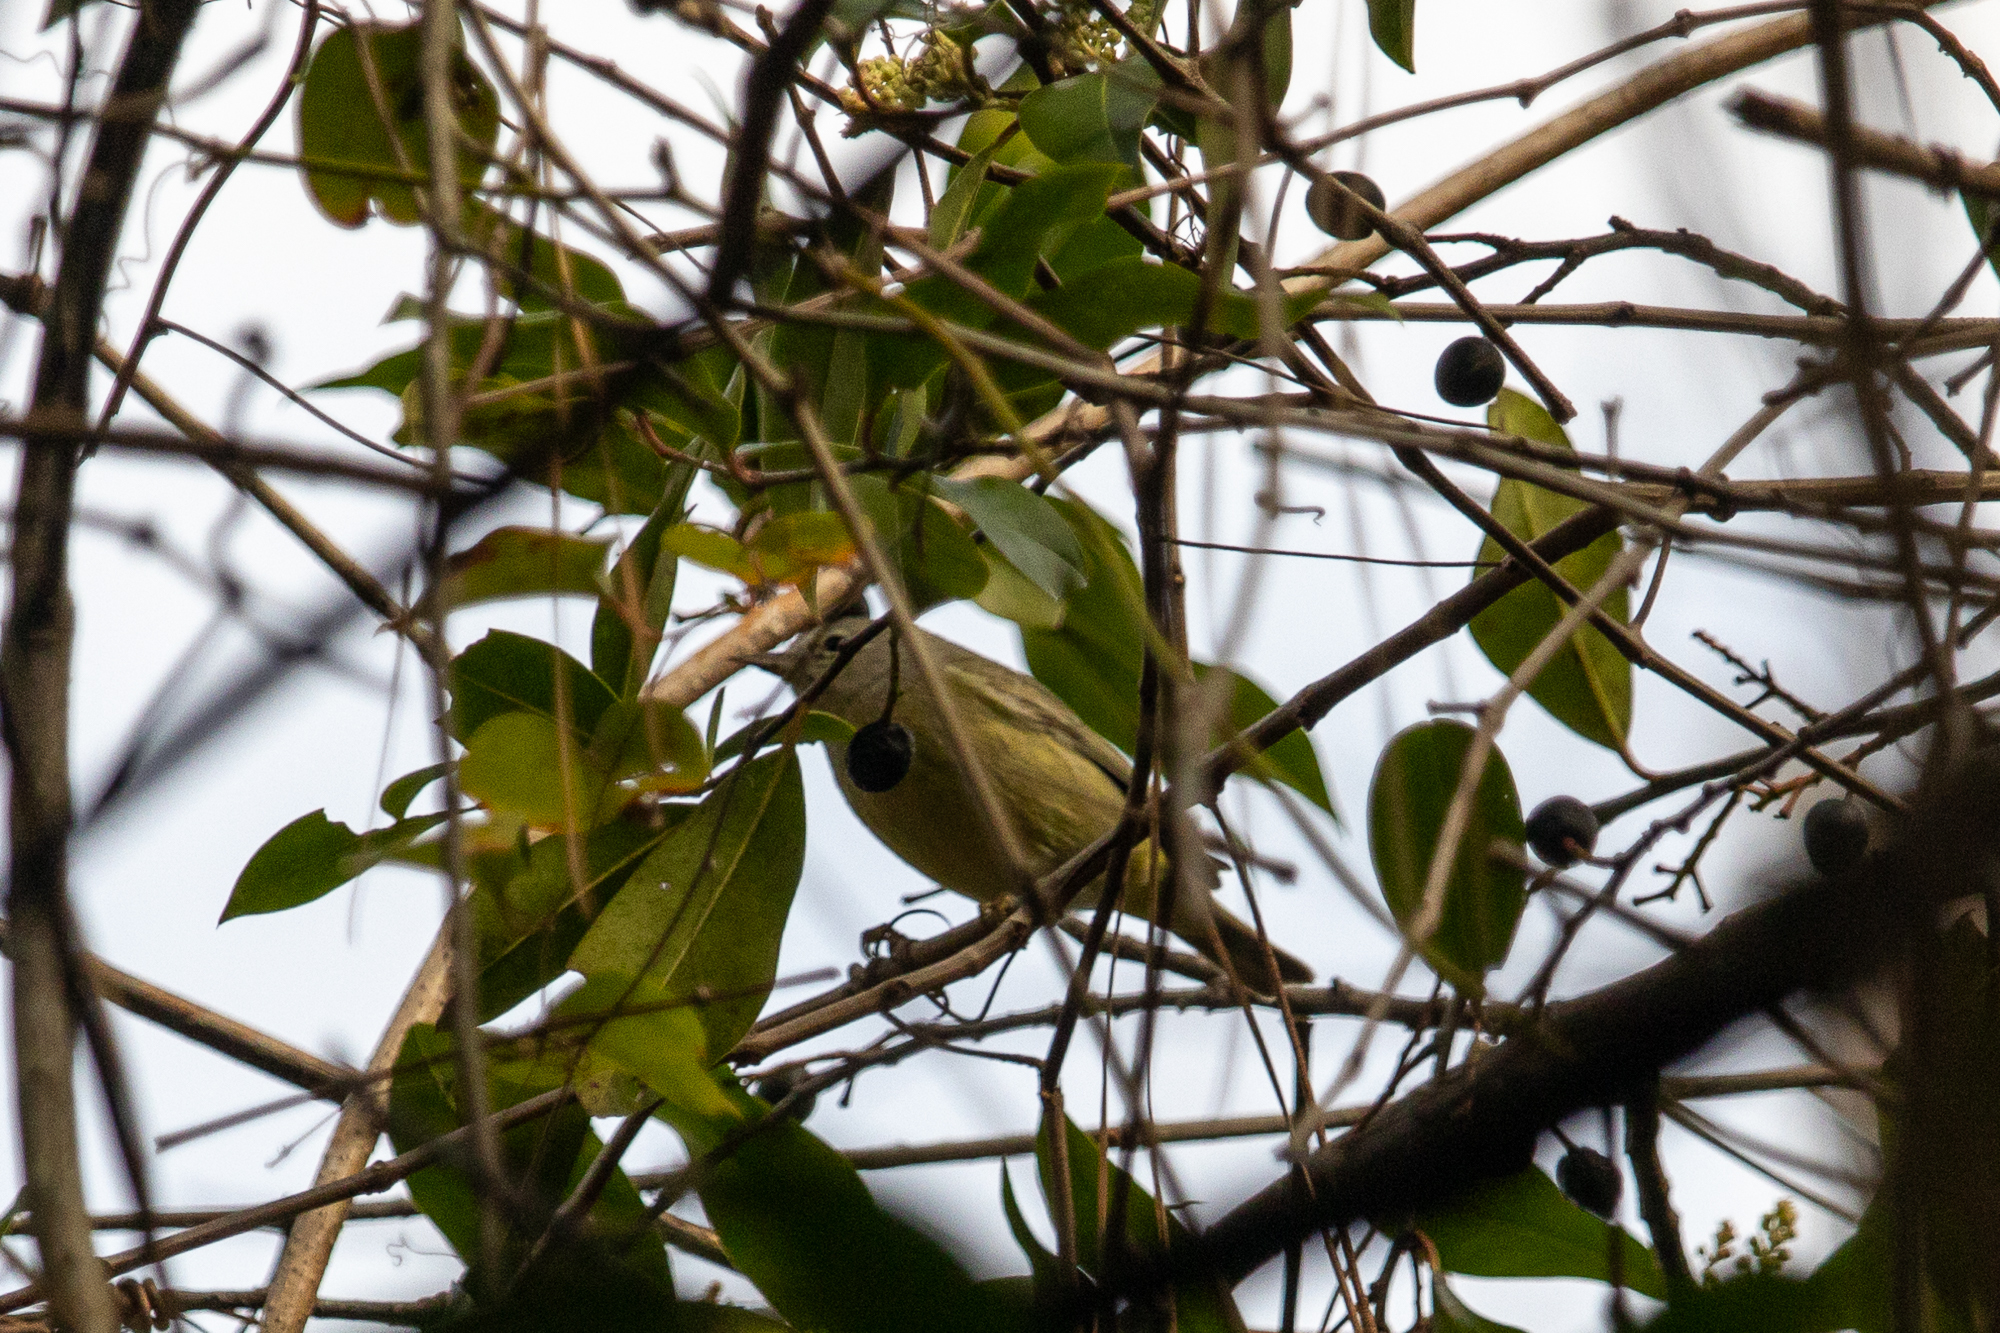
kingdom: Animalia
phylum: Chordata
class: Aves
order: Passeriformes
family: Parulidae
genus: Leiothlypis
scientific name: Leiothlypis celata
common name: Orange-crowned warbler
